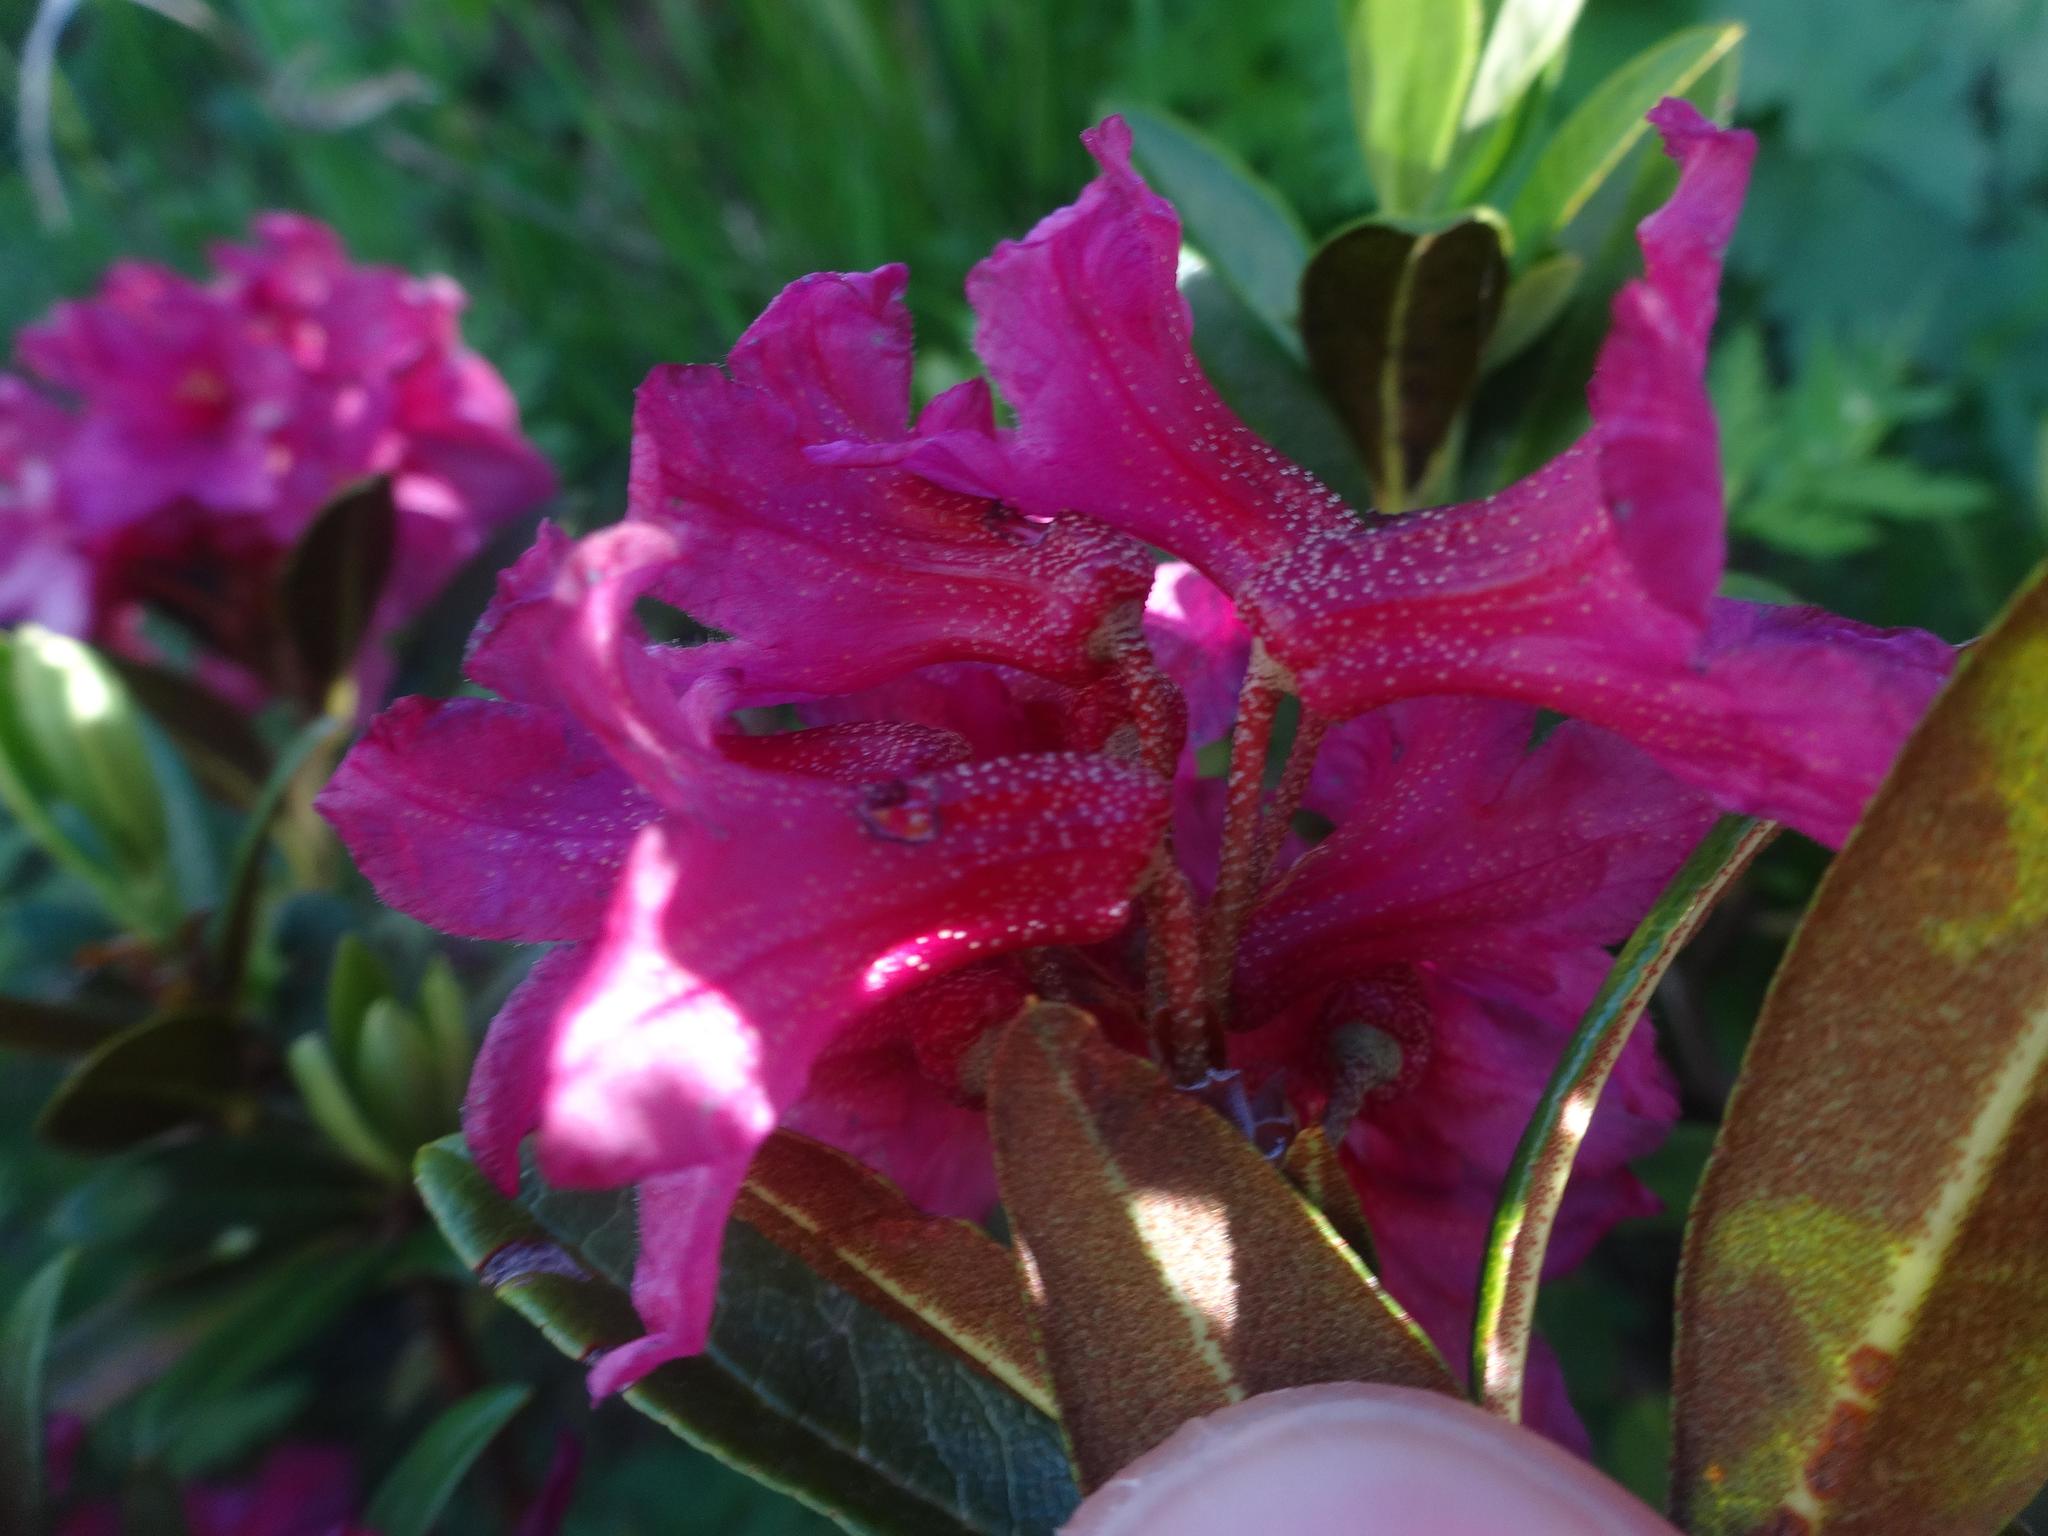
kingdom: Plantae
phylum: Tracheophyta
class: Magnoliopsida
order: Ericales
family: Ericaceae
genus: Rhododendron
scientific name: Rhododendron ferrugineum
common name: Alpenrose
